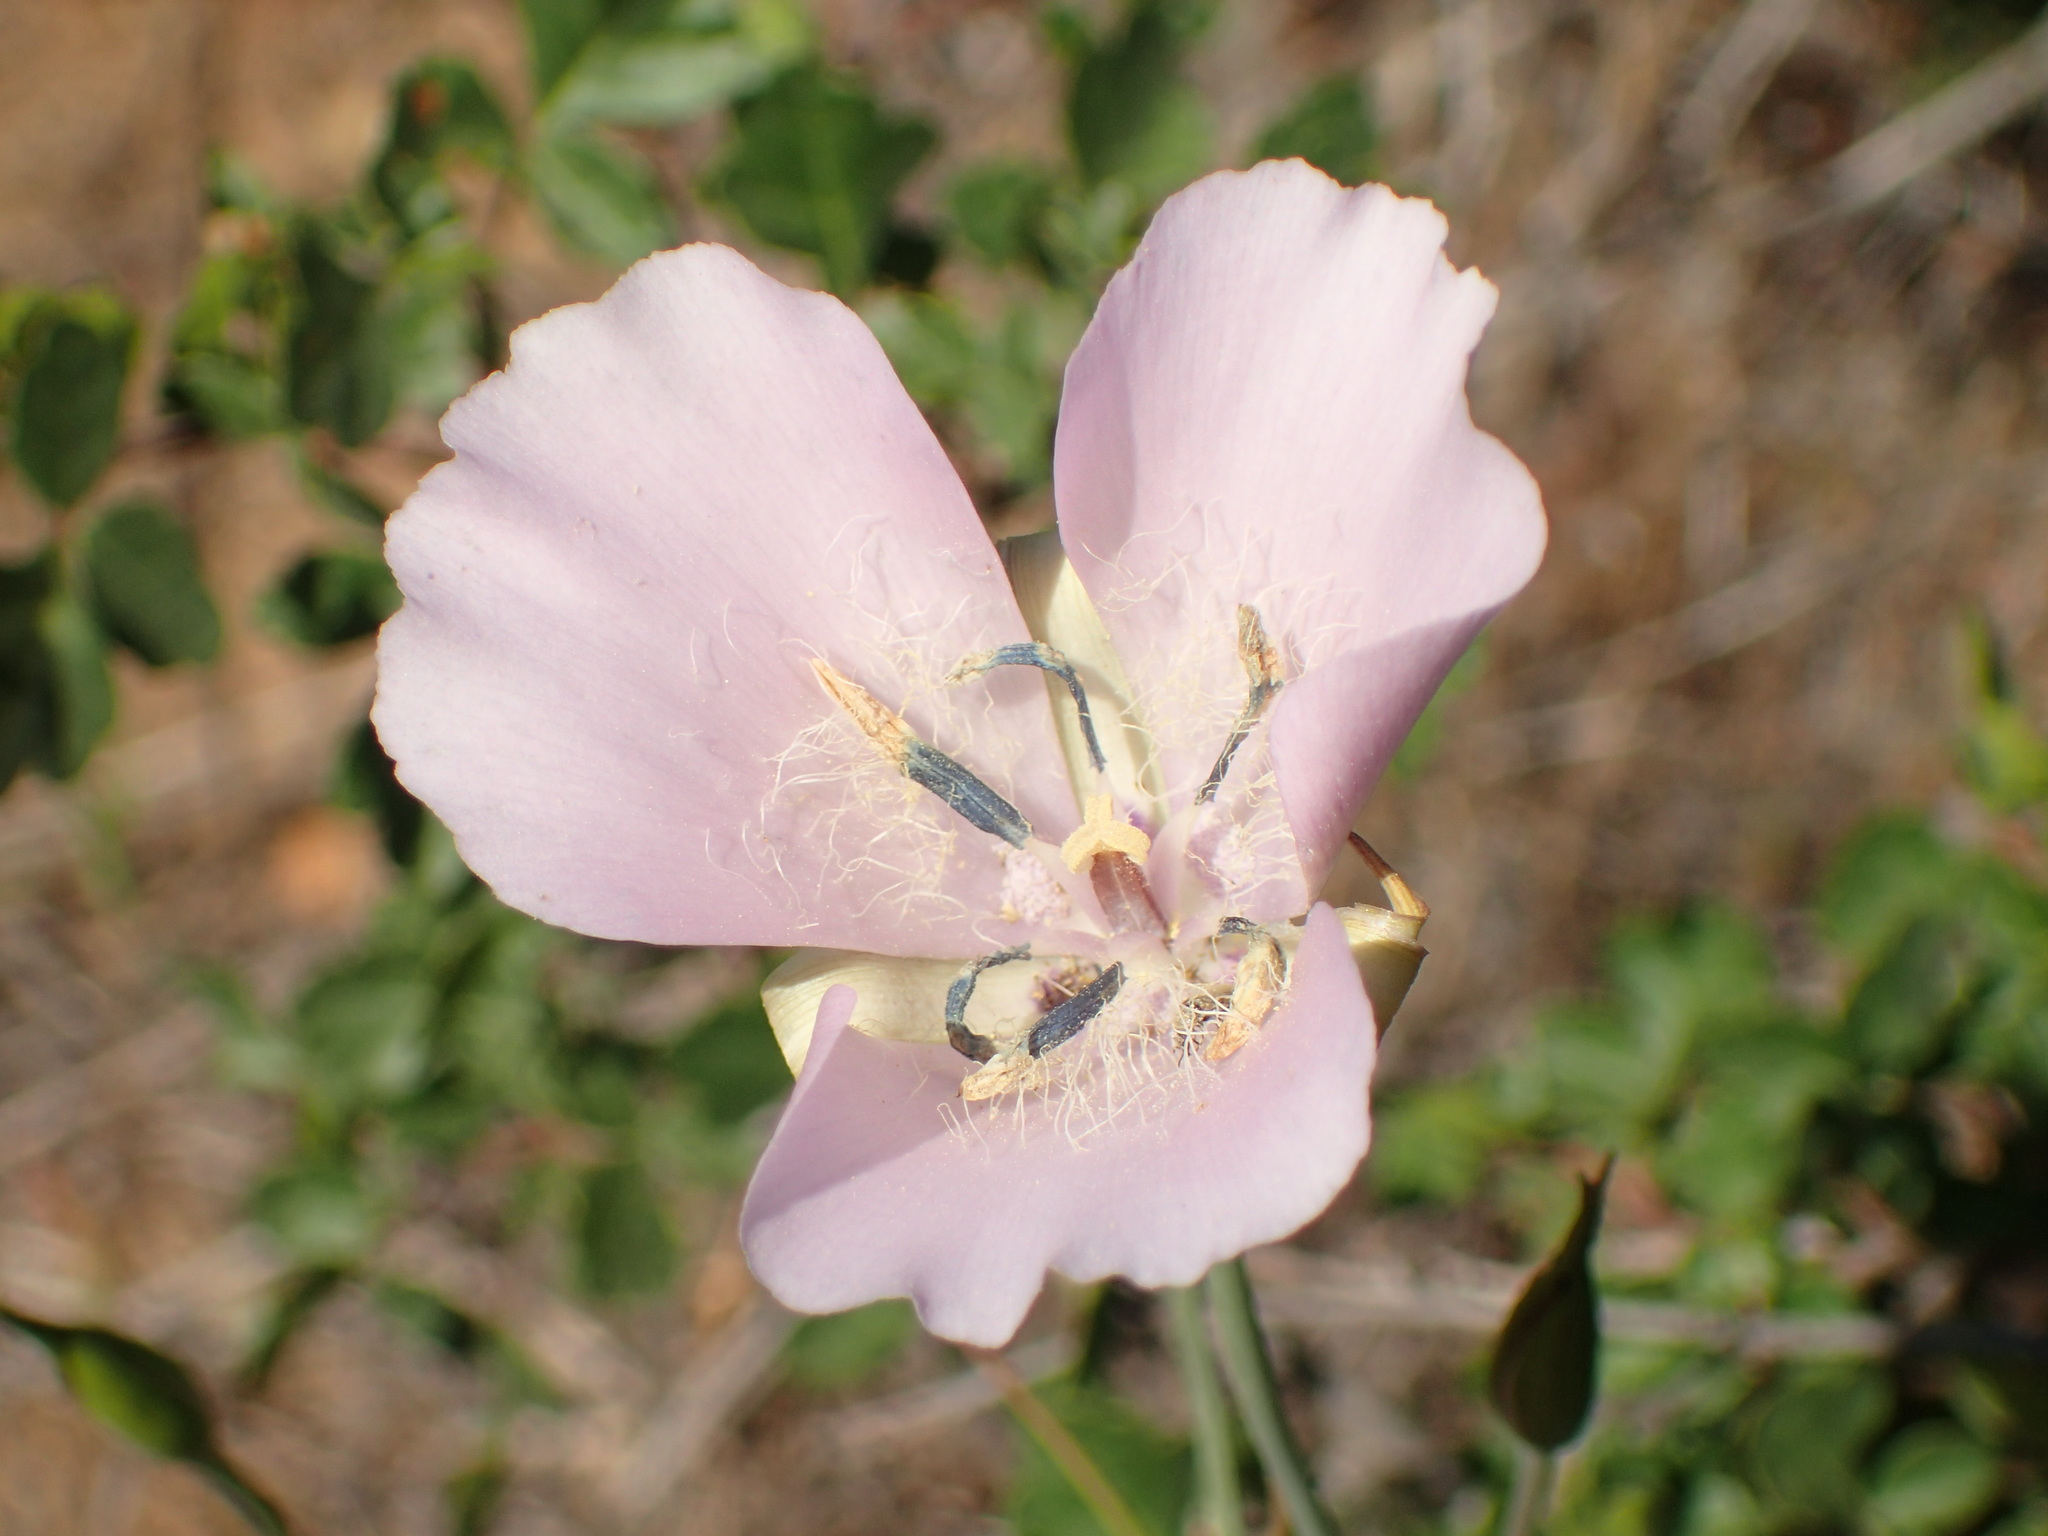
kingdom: Plantae
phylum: Tracheophyta
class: Liliopsida
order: Liliales
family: Liliaceae
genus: Calochortus
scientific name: Calochortus splendens
